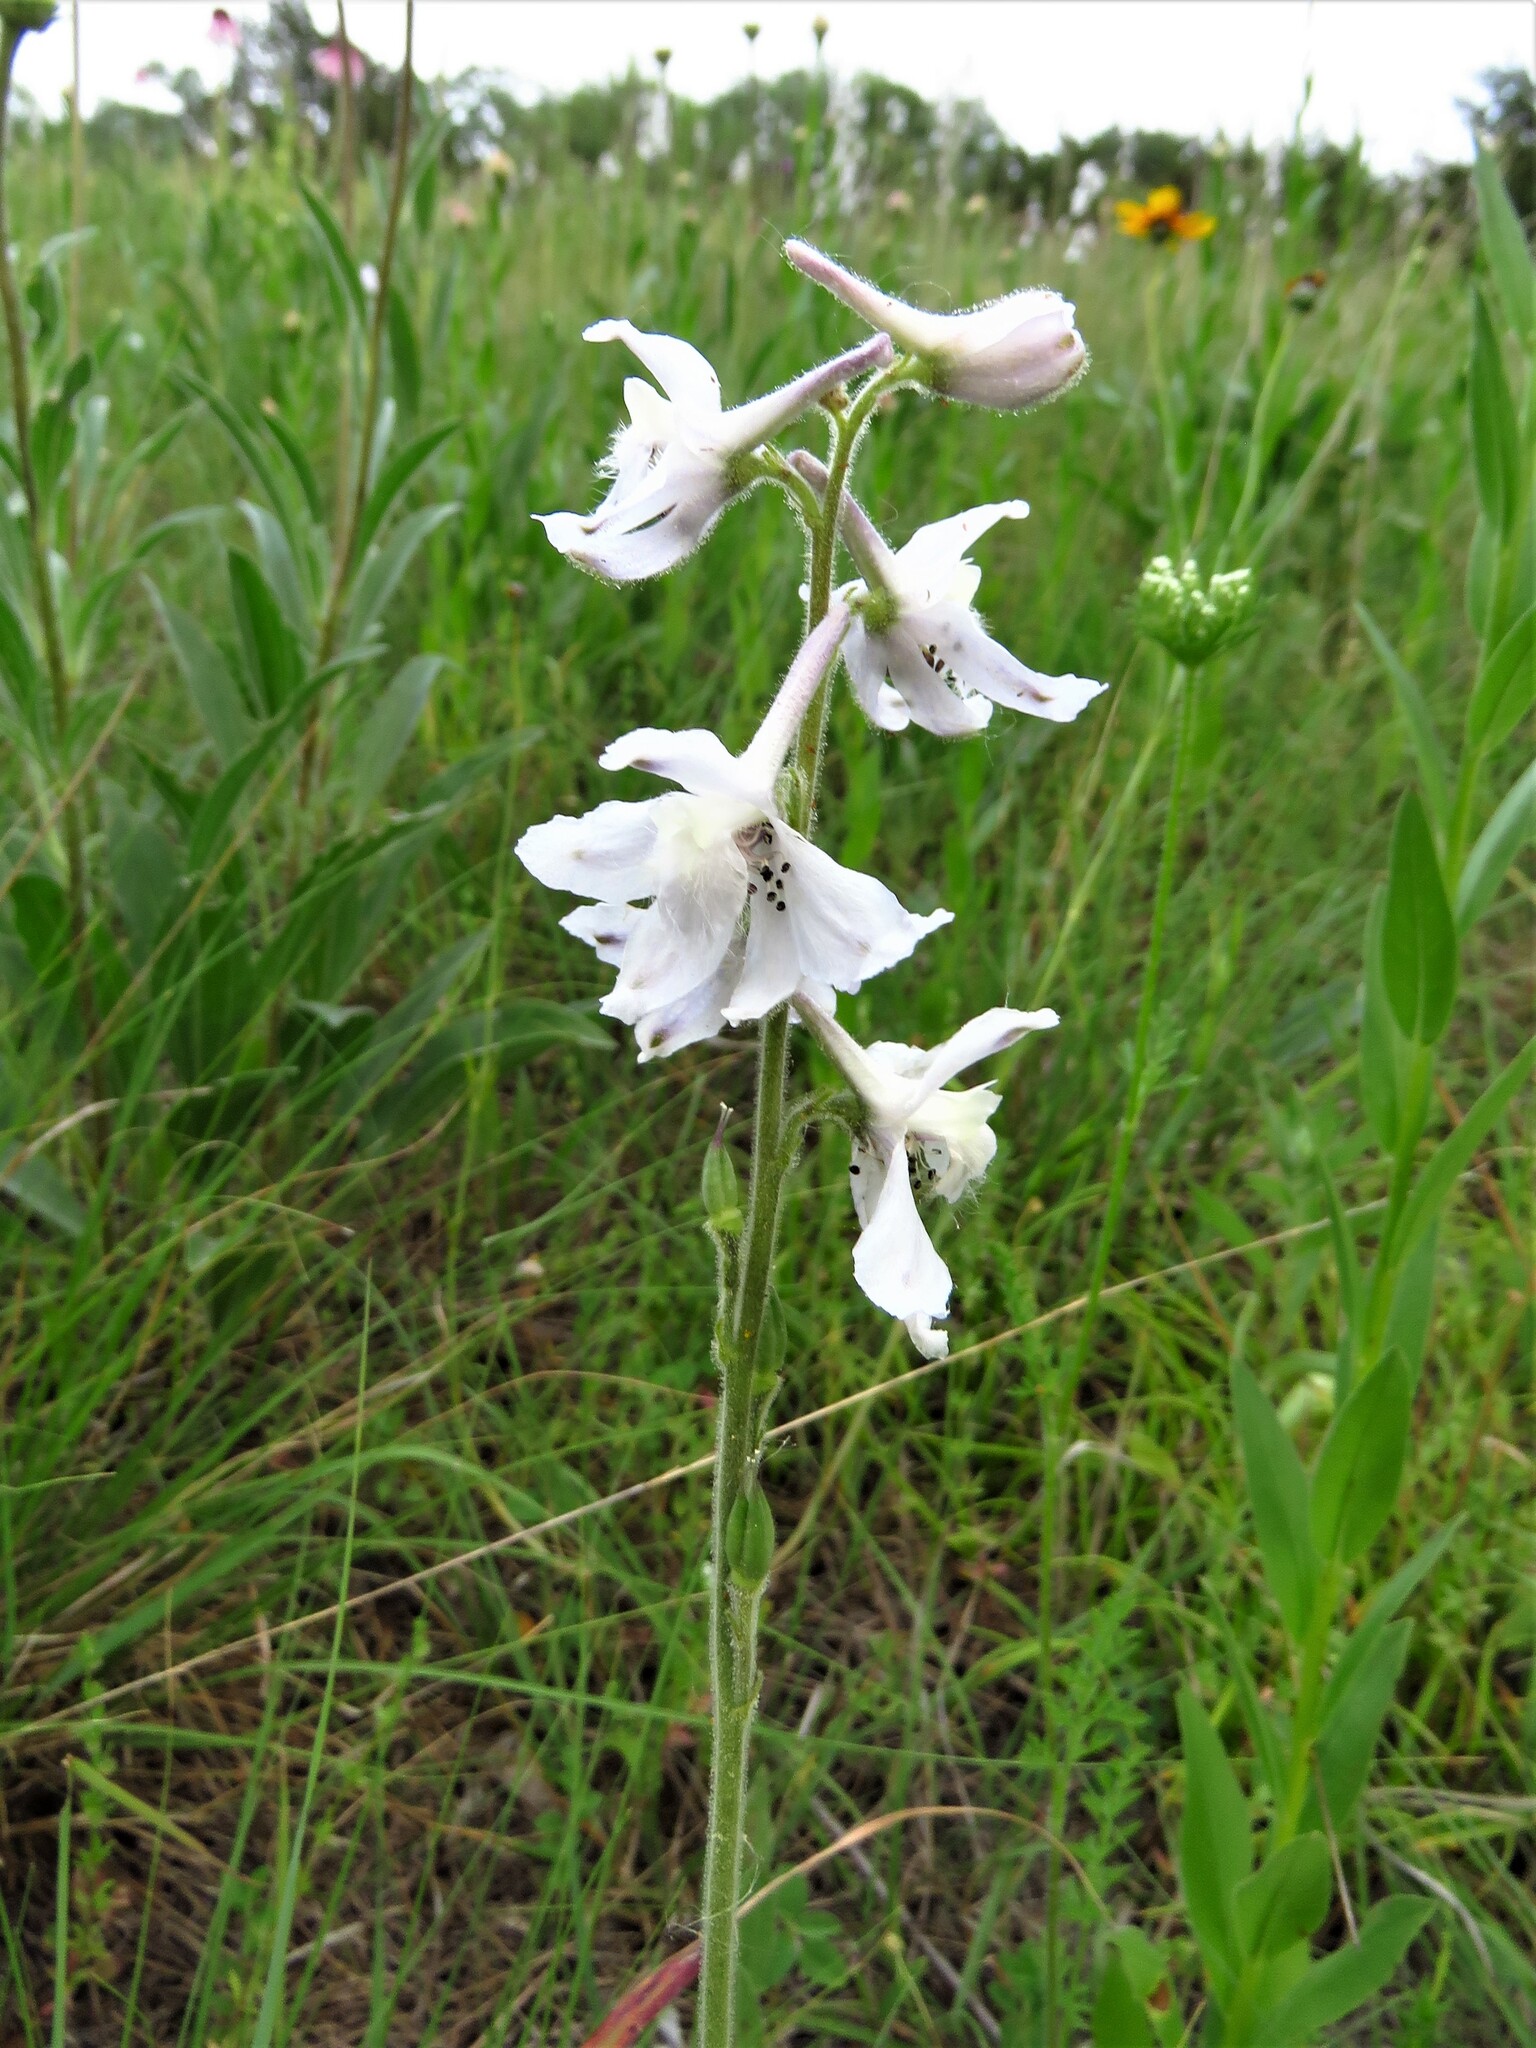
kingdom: Plantae
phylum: Tracheophyta
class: Magnoliopsida
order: Ranunculales
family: Ranunculaceae
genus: Delphinium
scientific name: Delphinium carolinianum
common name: Carolina larkspur
